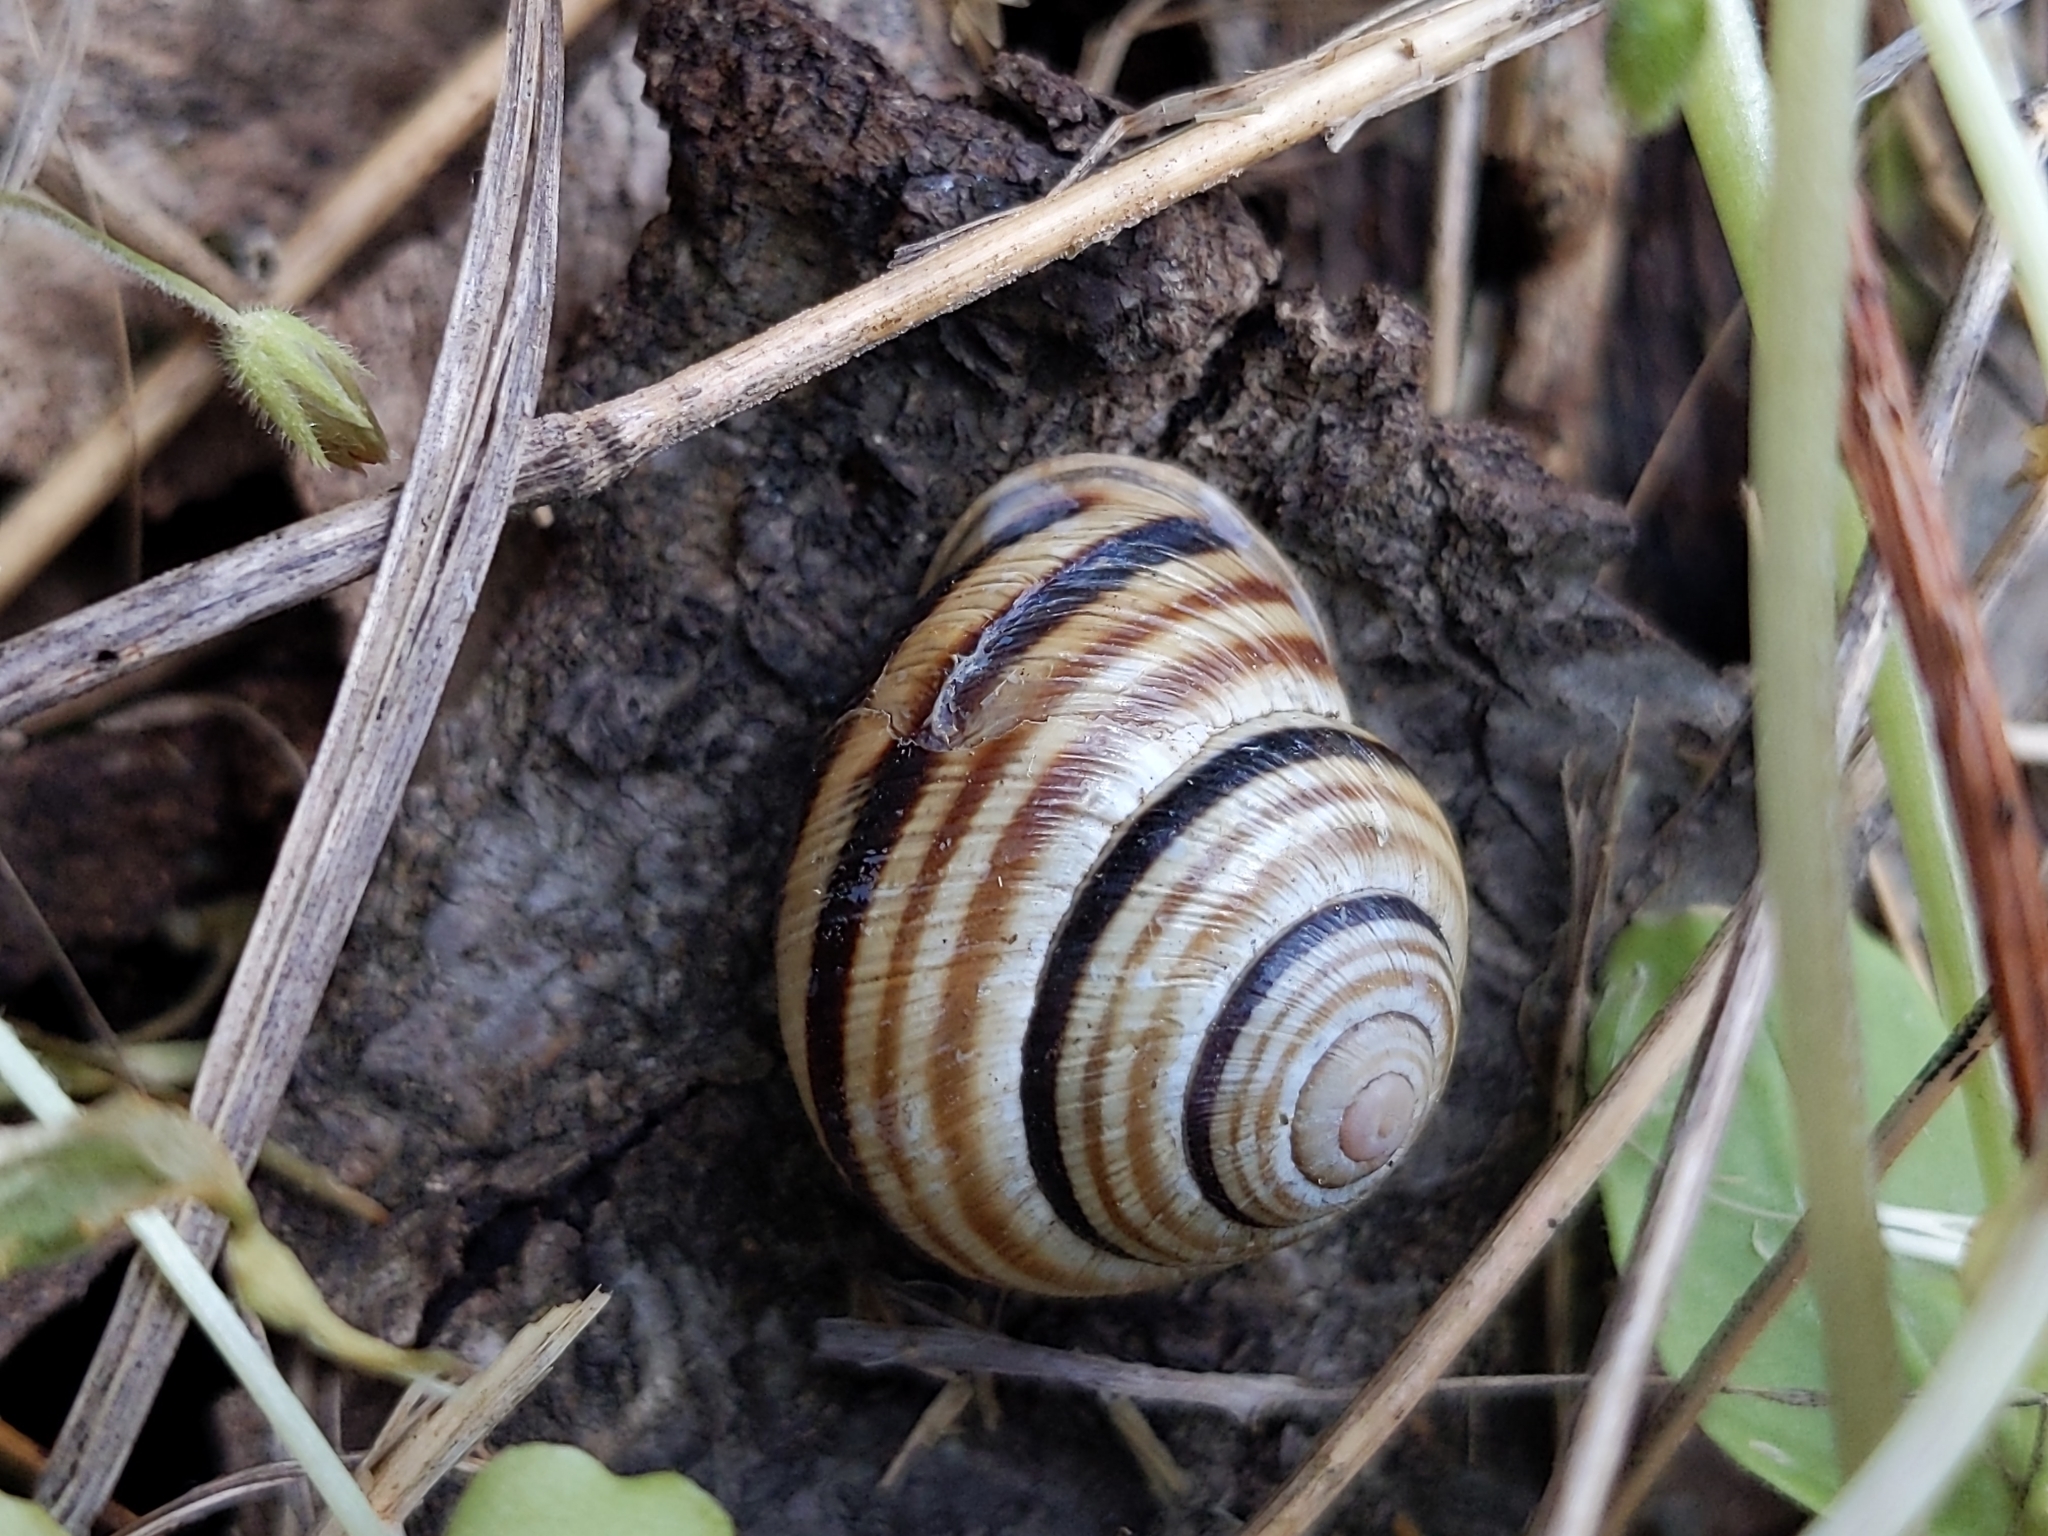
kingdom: Animalia
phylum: Mollusca
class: Gastropoda
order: Stylommatophora
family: Helicidae
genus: Caucasotachea
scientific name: Caucasotachea vindobonensis
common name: European helicid land snail
